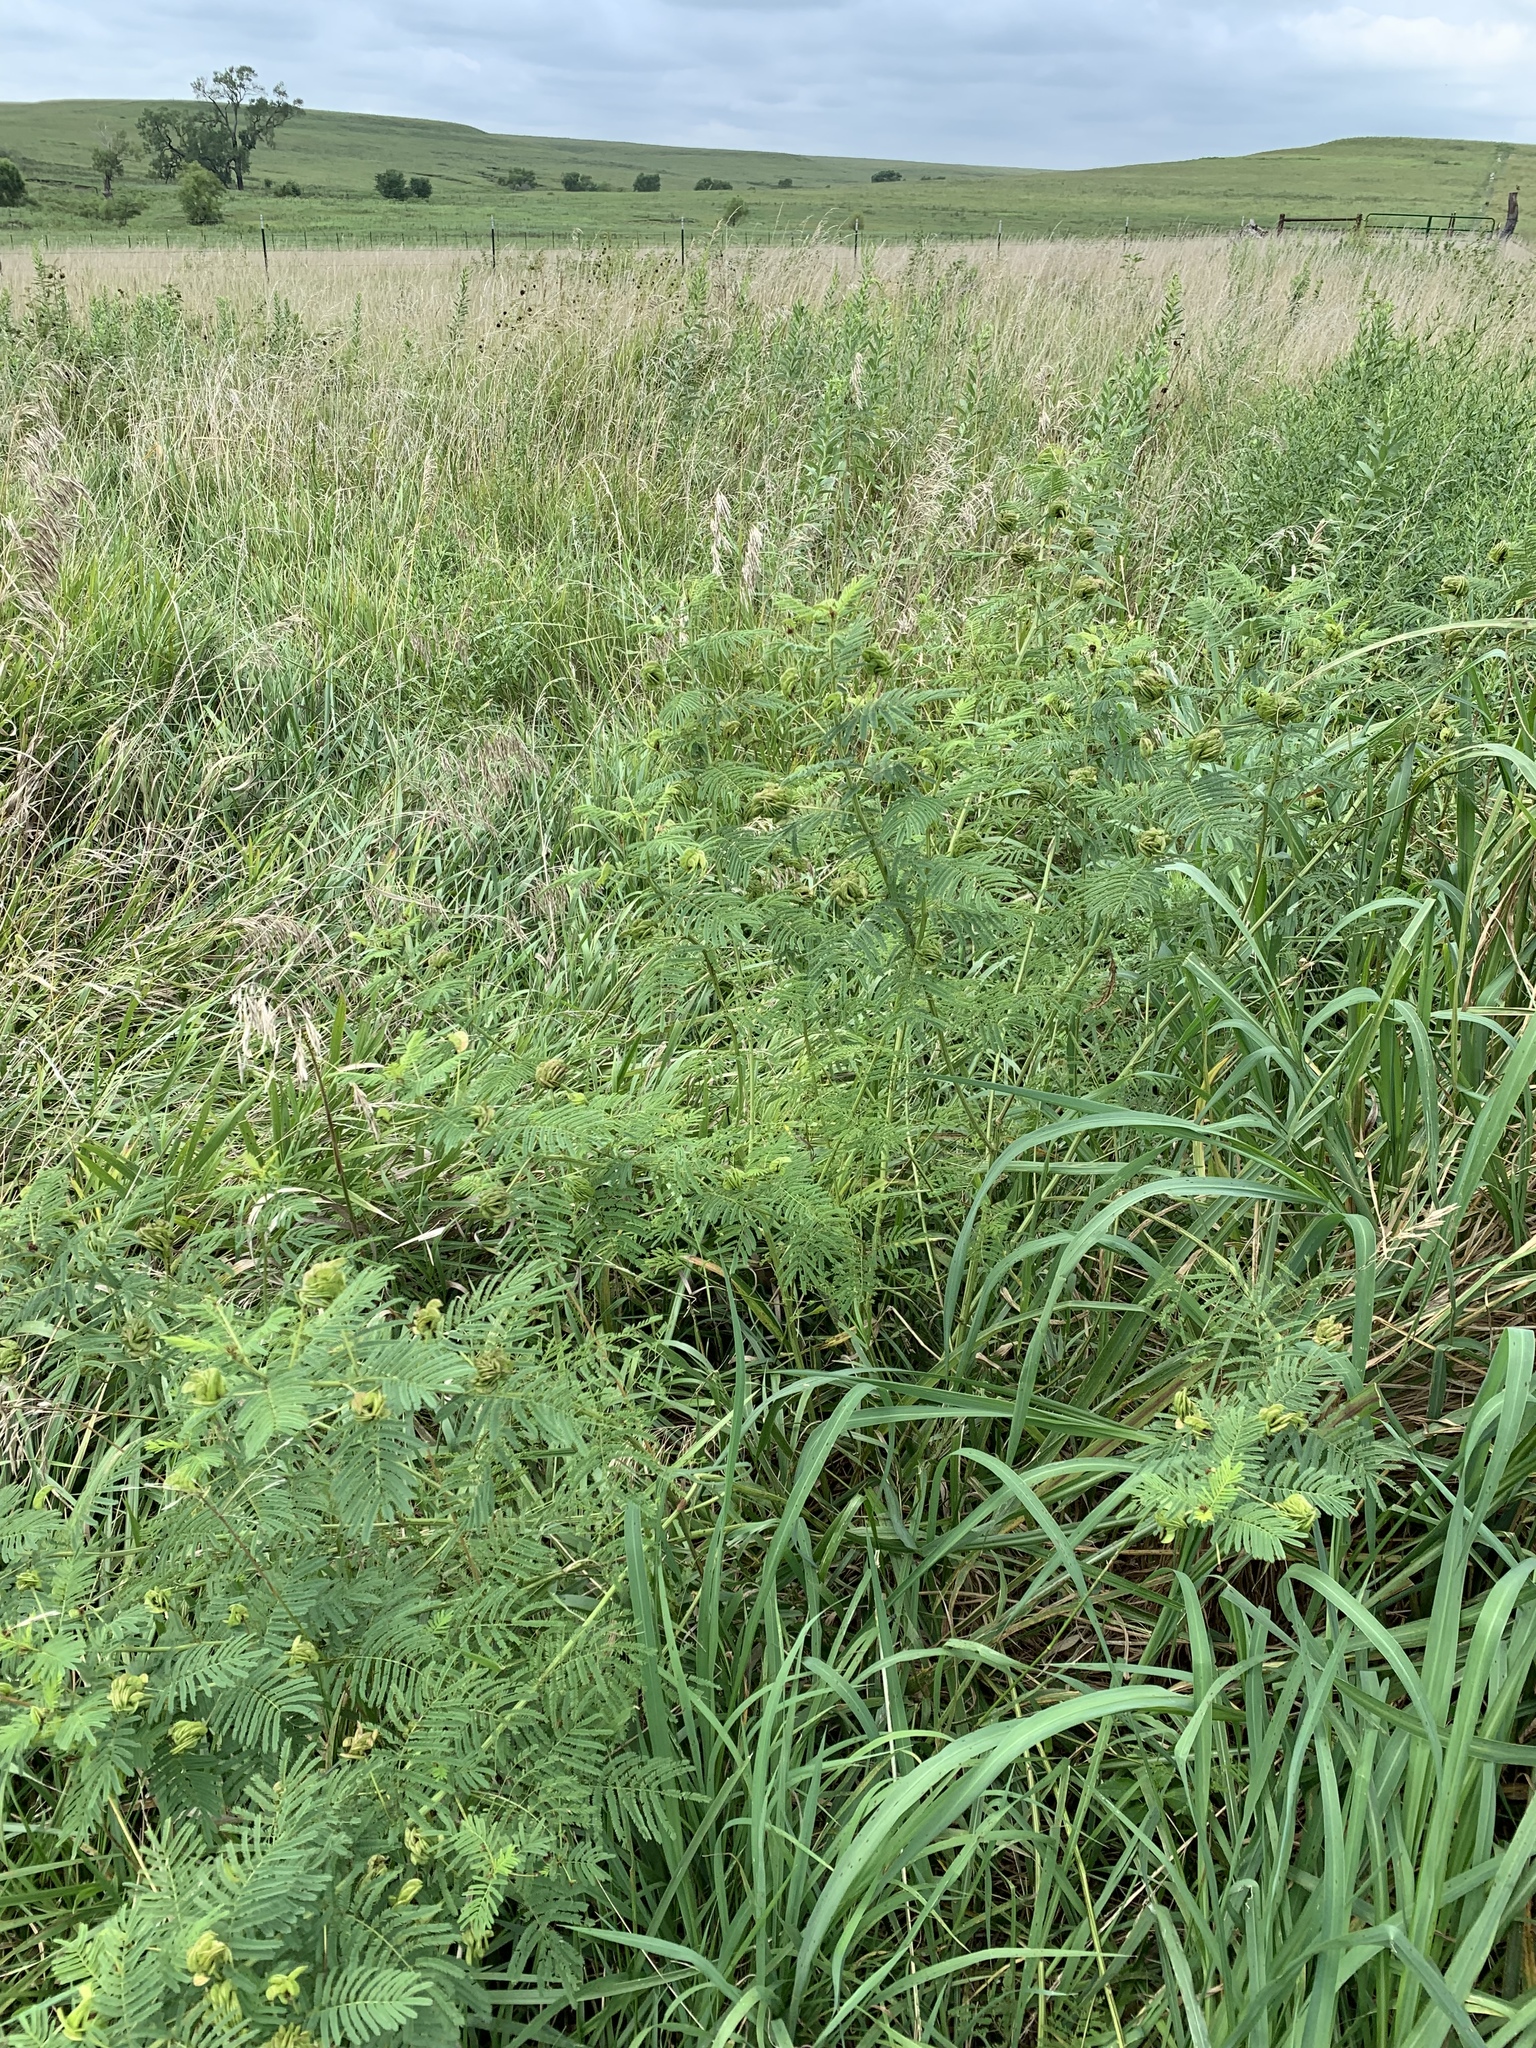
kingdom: Plantae
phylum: Tracheophyta
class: Magnoliopsida
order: Fabales
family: Fabaceae
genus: Desmanthus
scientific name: Desmanthus illinoensis
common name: Illinois bundle-flower
